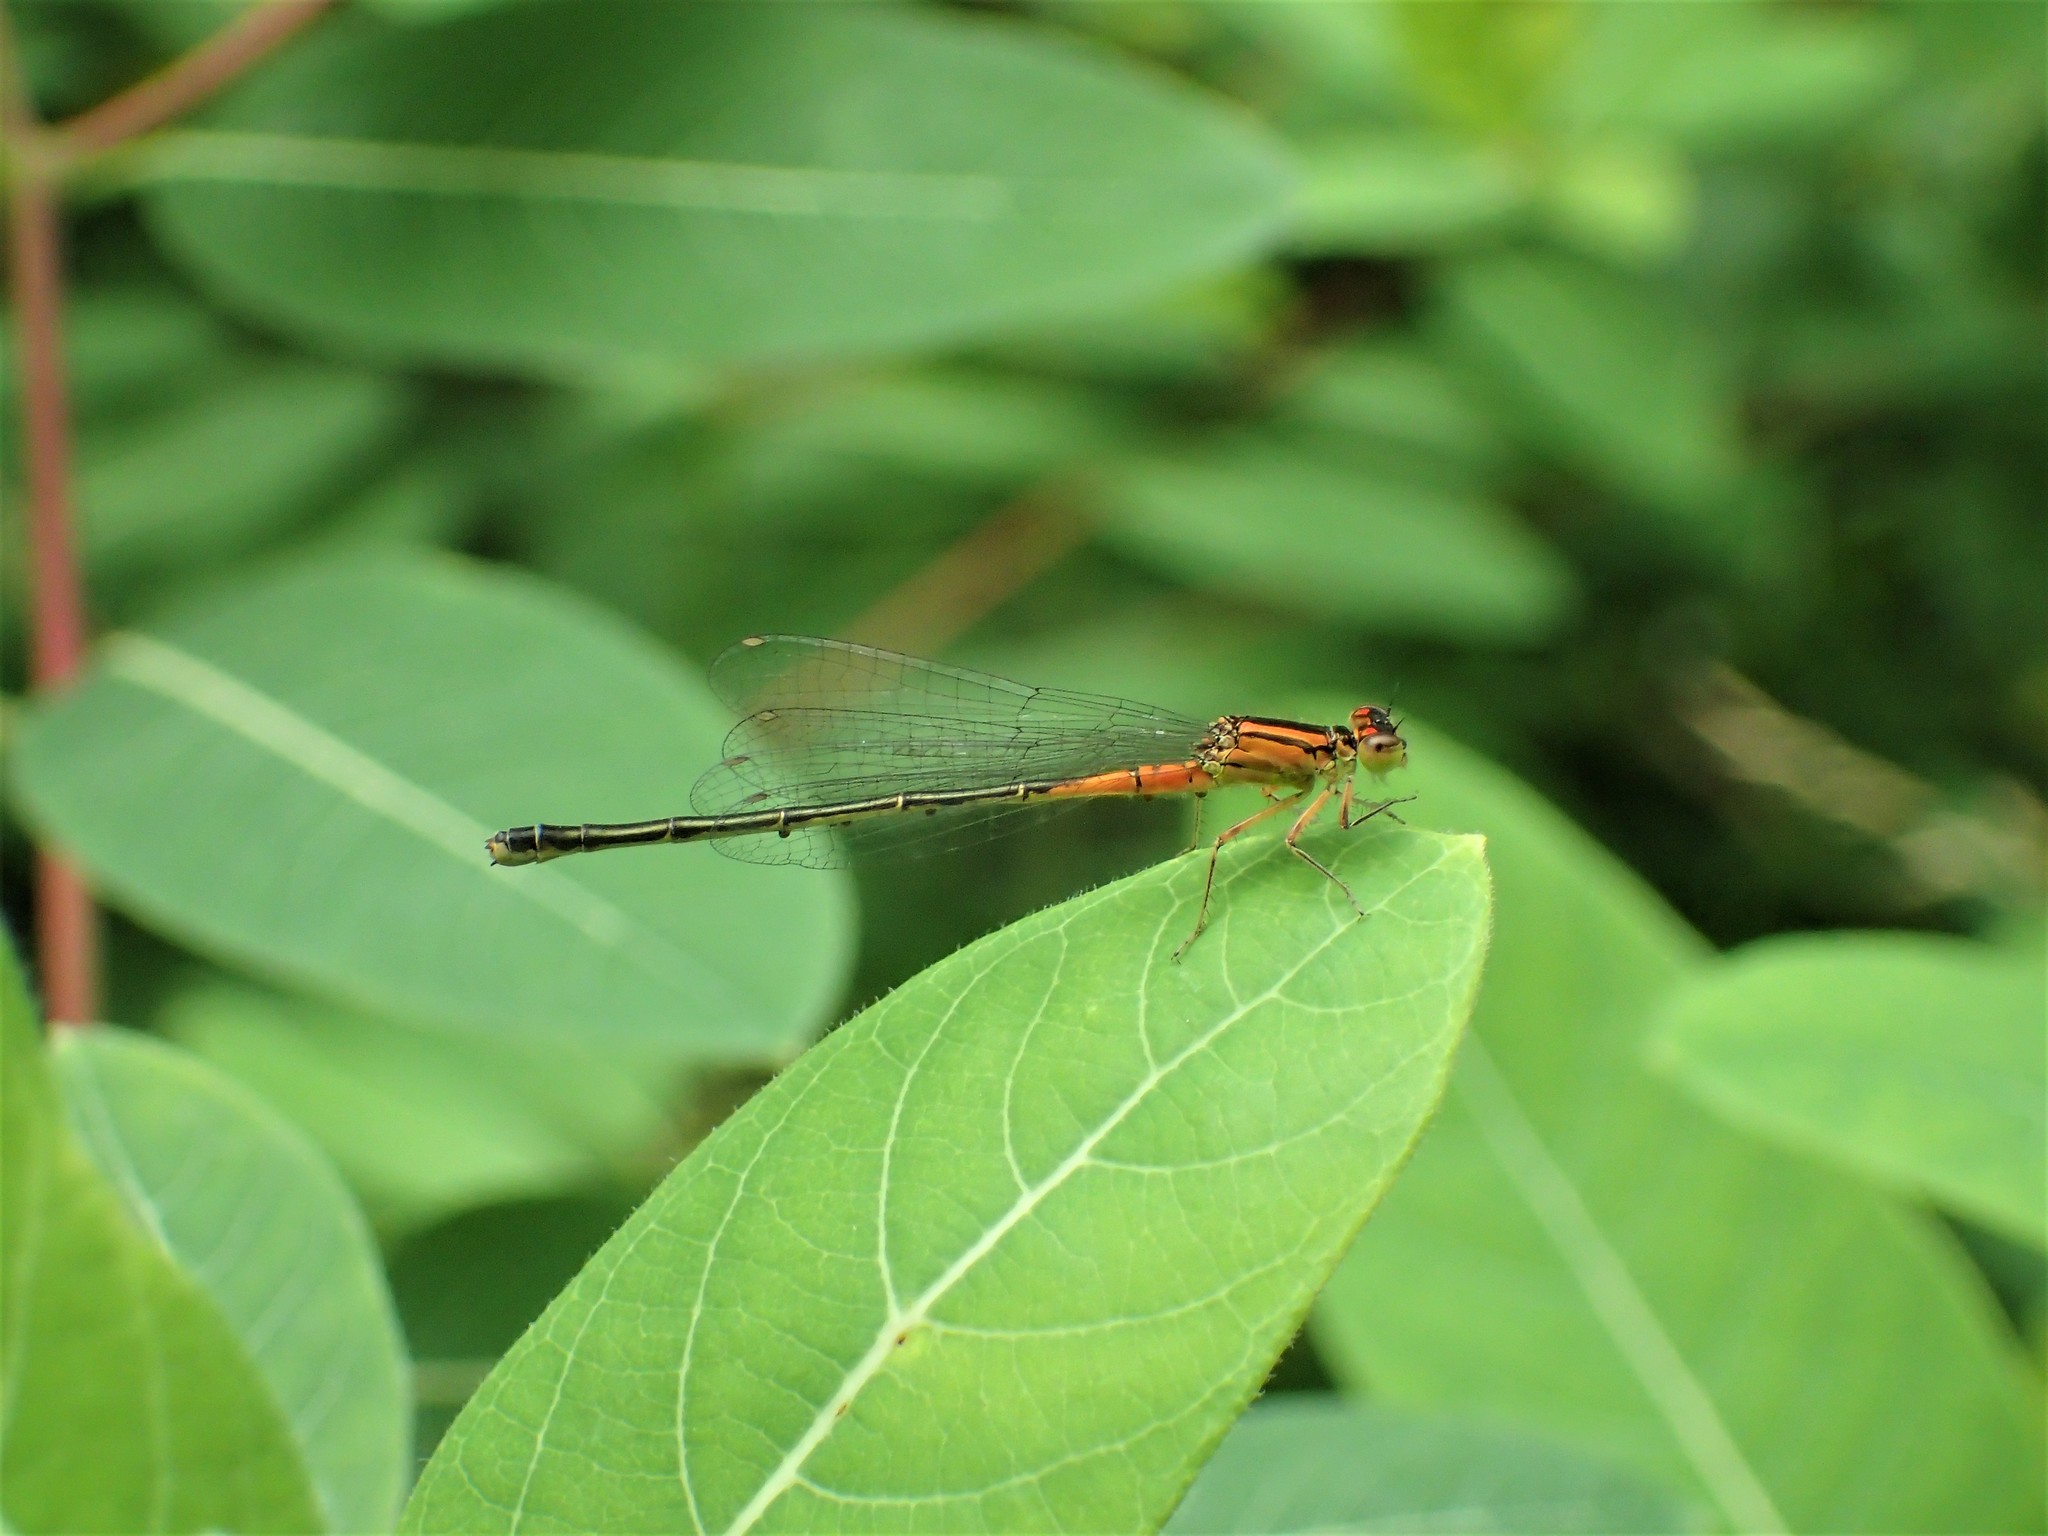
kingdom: Animalia
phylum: Arthropoda
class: Insecta
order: Odonata
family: Coenagrionidae
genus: Ischnura
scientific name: Ischnura verticalis
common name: Eastern forktail
